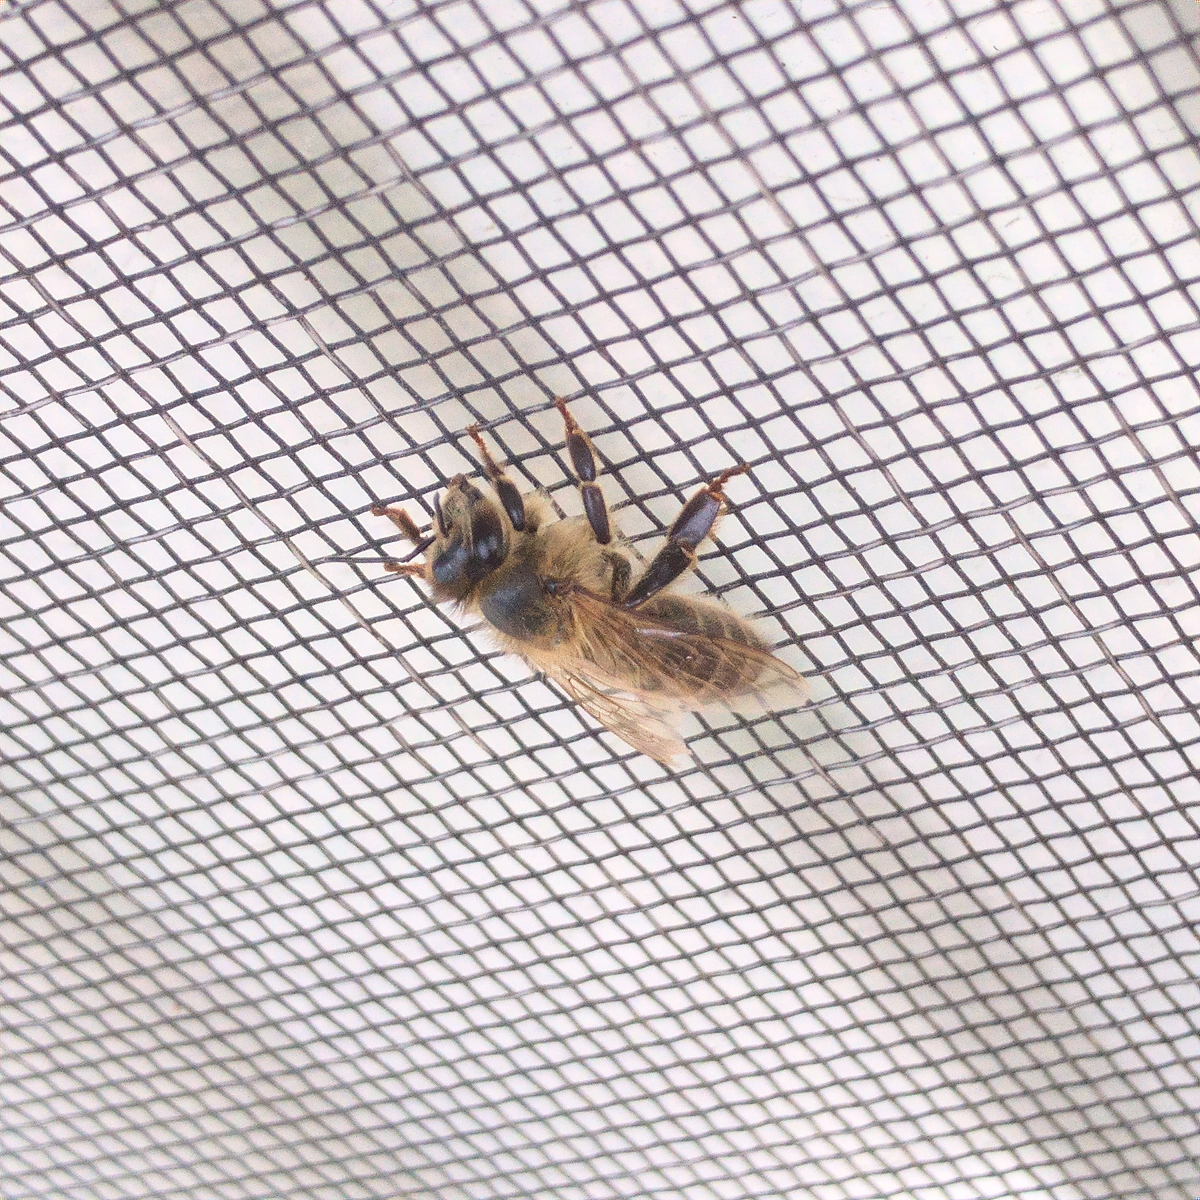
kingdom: Animalia
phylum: Arthropoda
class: Insecta
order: Hymenoptera
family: Apidae
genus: Apis
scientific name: Apis mellifera
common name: Honey bee
